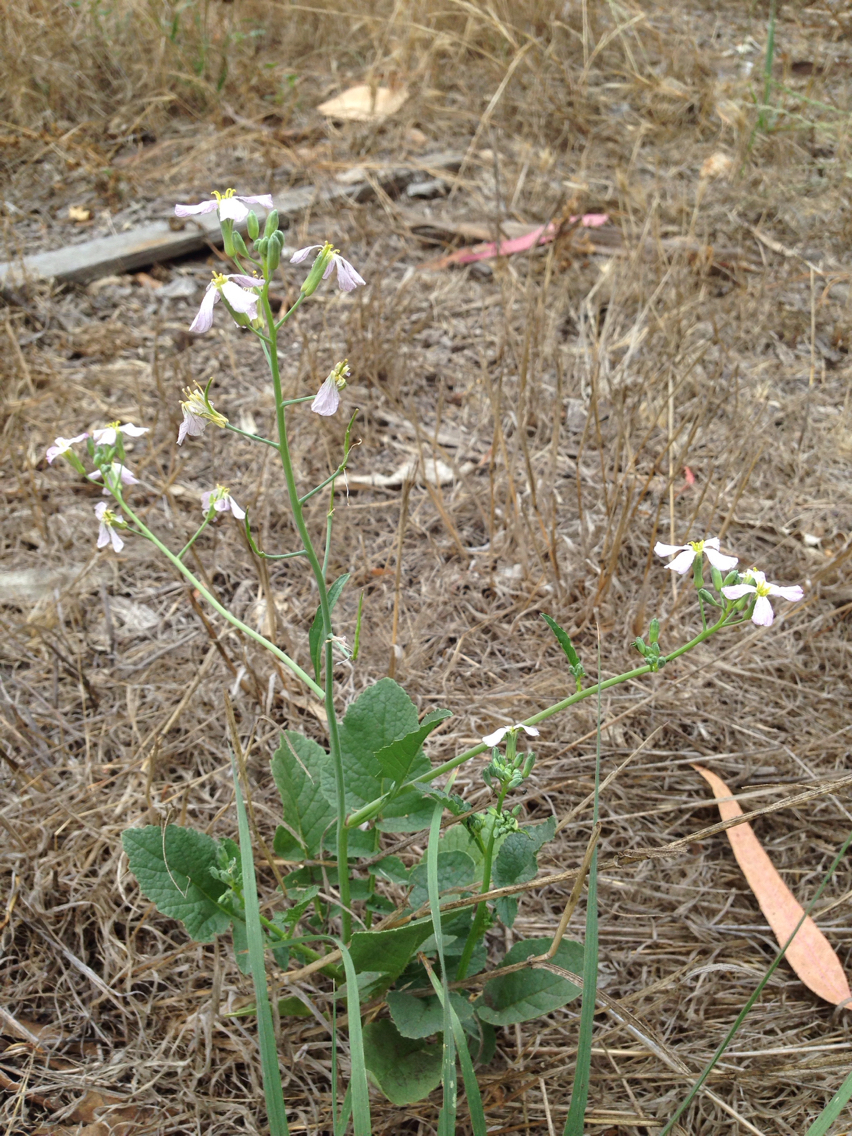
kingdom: Plantae
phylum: Tracheophyta
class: Magnoliopsida
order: Brassicales
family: Brassicaceae
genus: Raphanus
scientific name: Raphanus sativus
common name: Cultivated radish
